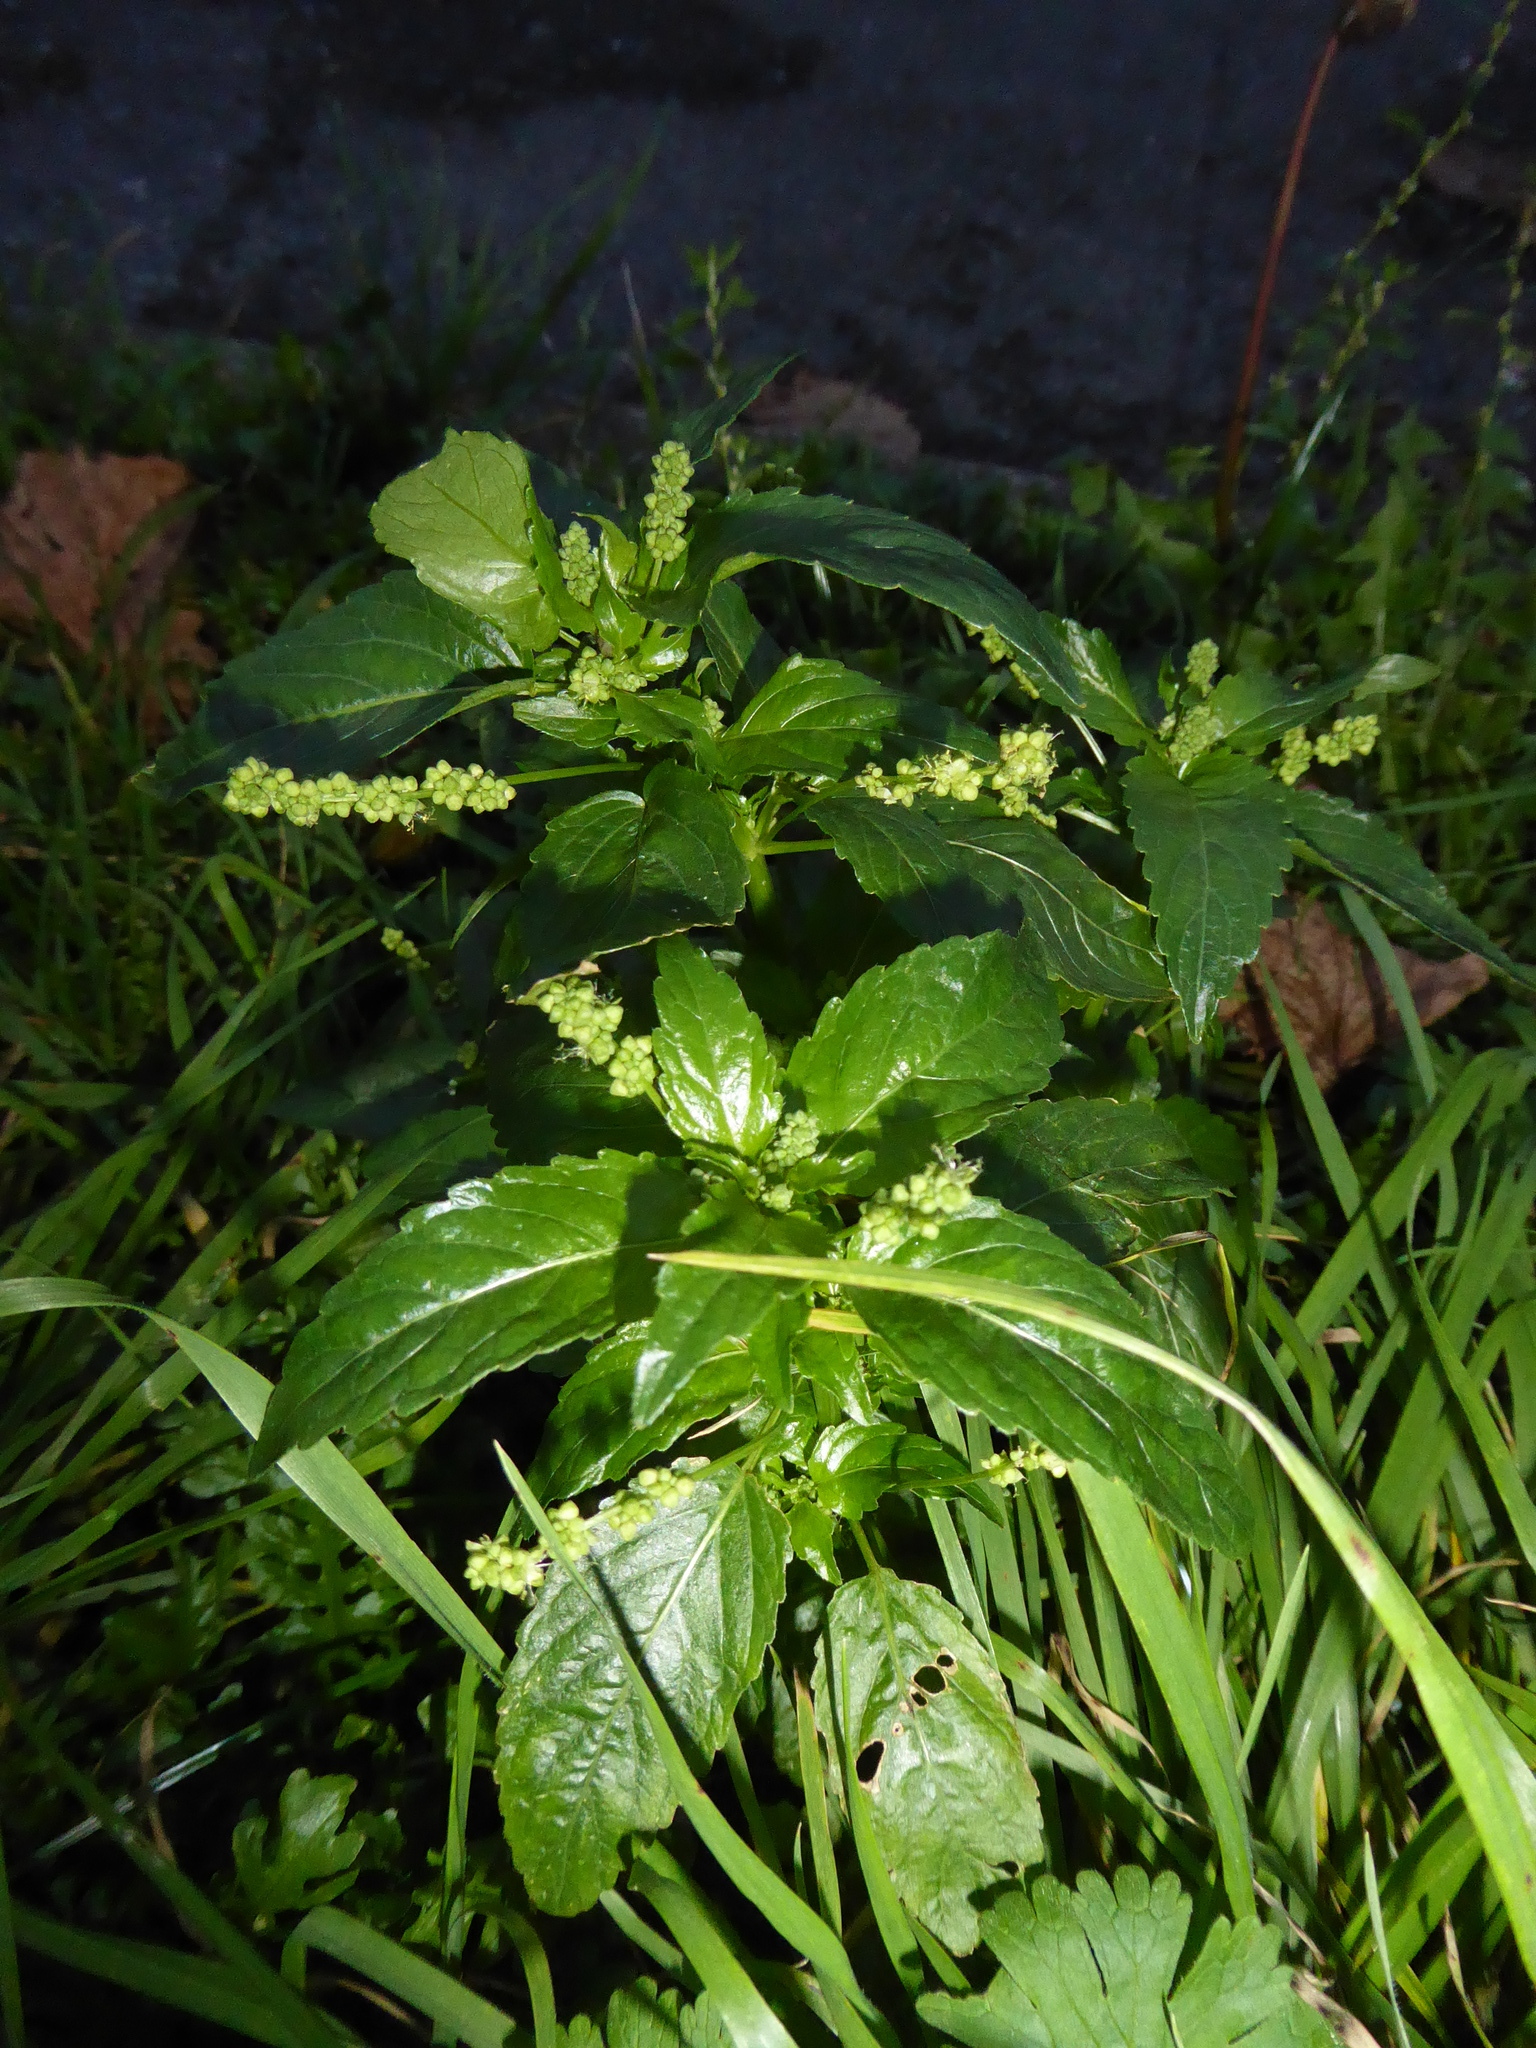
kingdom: Plantae
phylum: Tracheophyta
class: Magnoliopsida
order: Malpighiales
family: Euphorbiaceae
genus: Mercurialis
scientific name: Mercurialis annua
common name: Annual mercury
